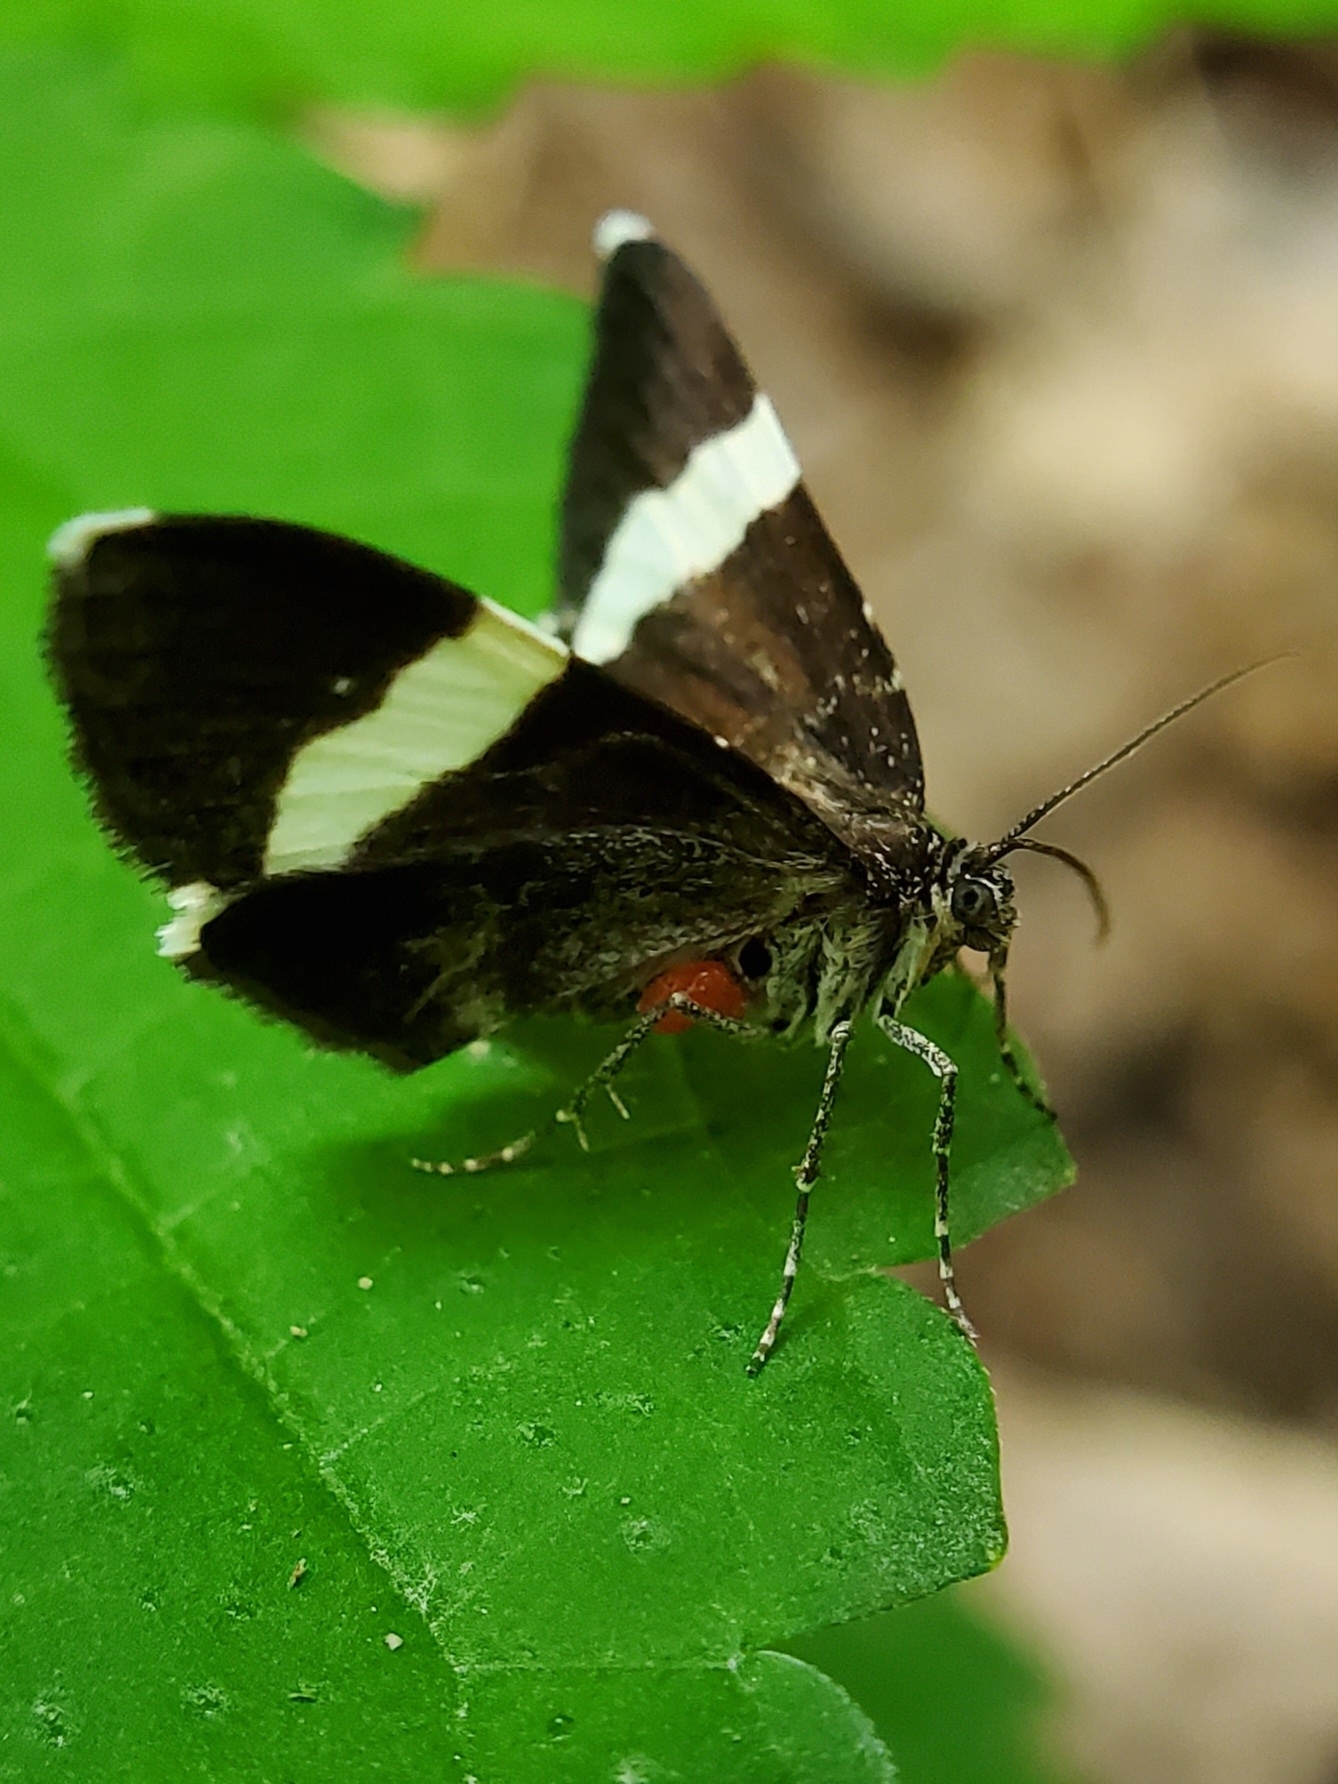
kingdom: Animalia
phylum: Arthropoda
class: Insecta
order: Lepidoptera
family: Geometridae
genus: Trichodezia
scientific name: Trichodezia albovittata
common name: White striped black
